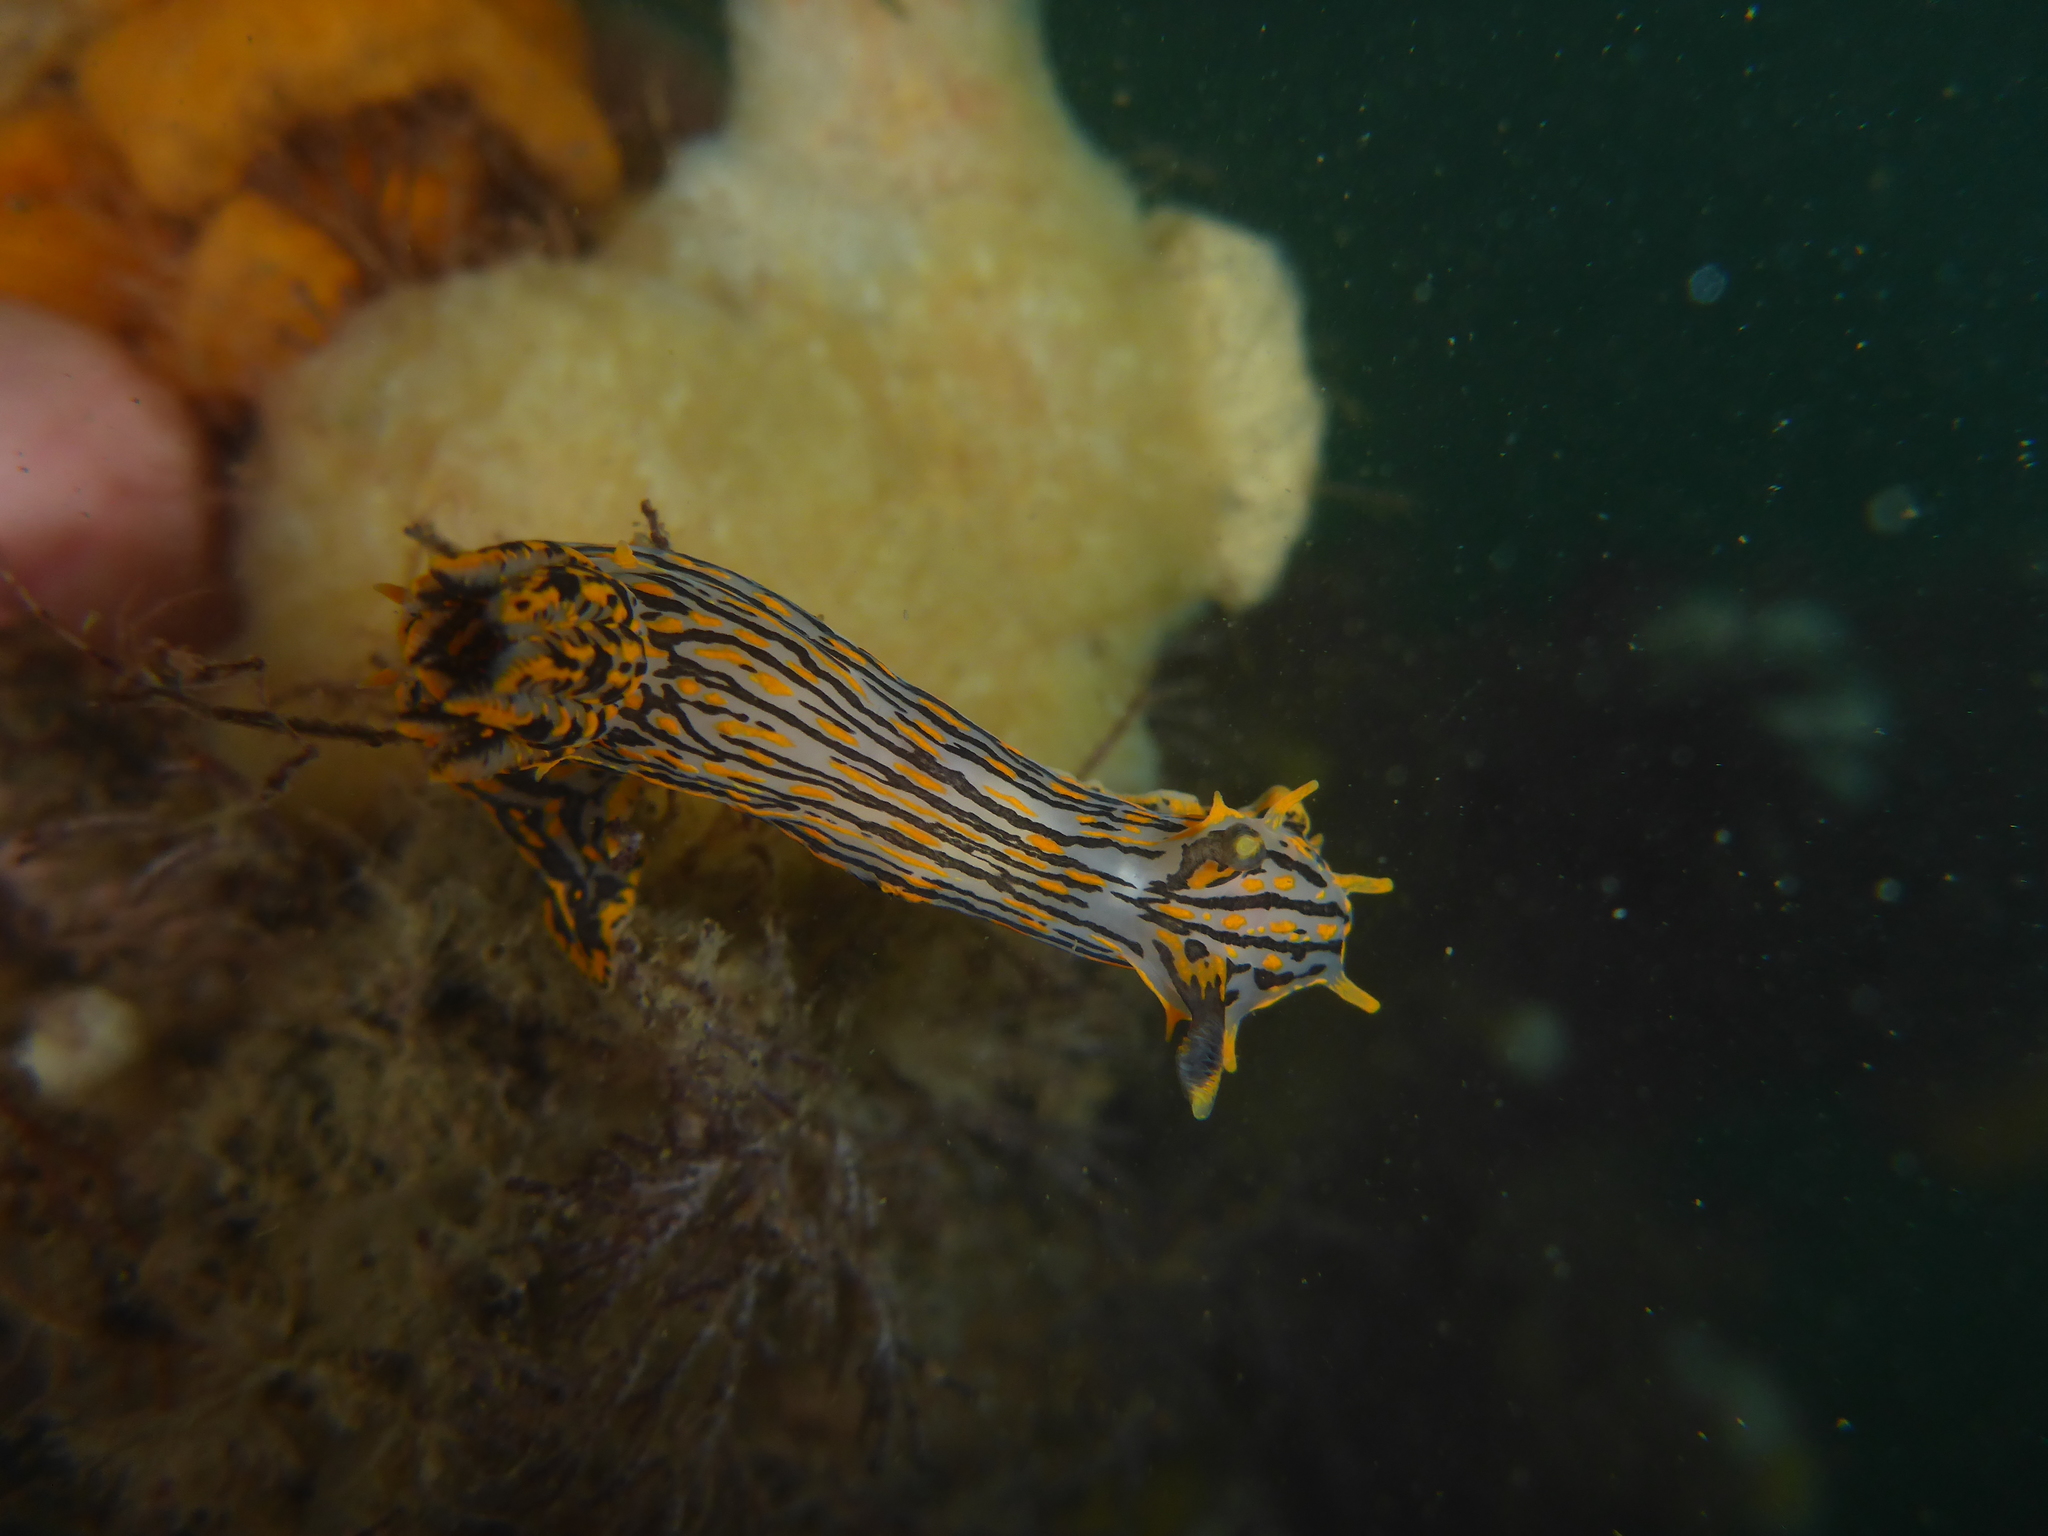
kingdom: Animalia
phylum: Mollusca
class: Gastropoda
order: Nudibranchia
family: Polyceridae
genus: Polycera
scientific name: Polycera atra
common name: Orange-spike polycera
